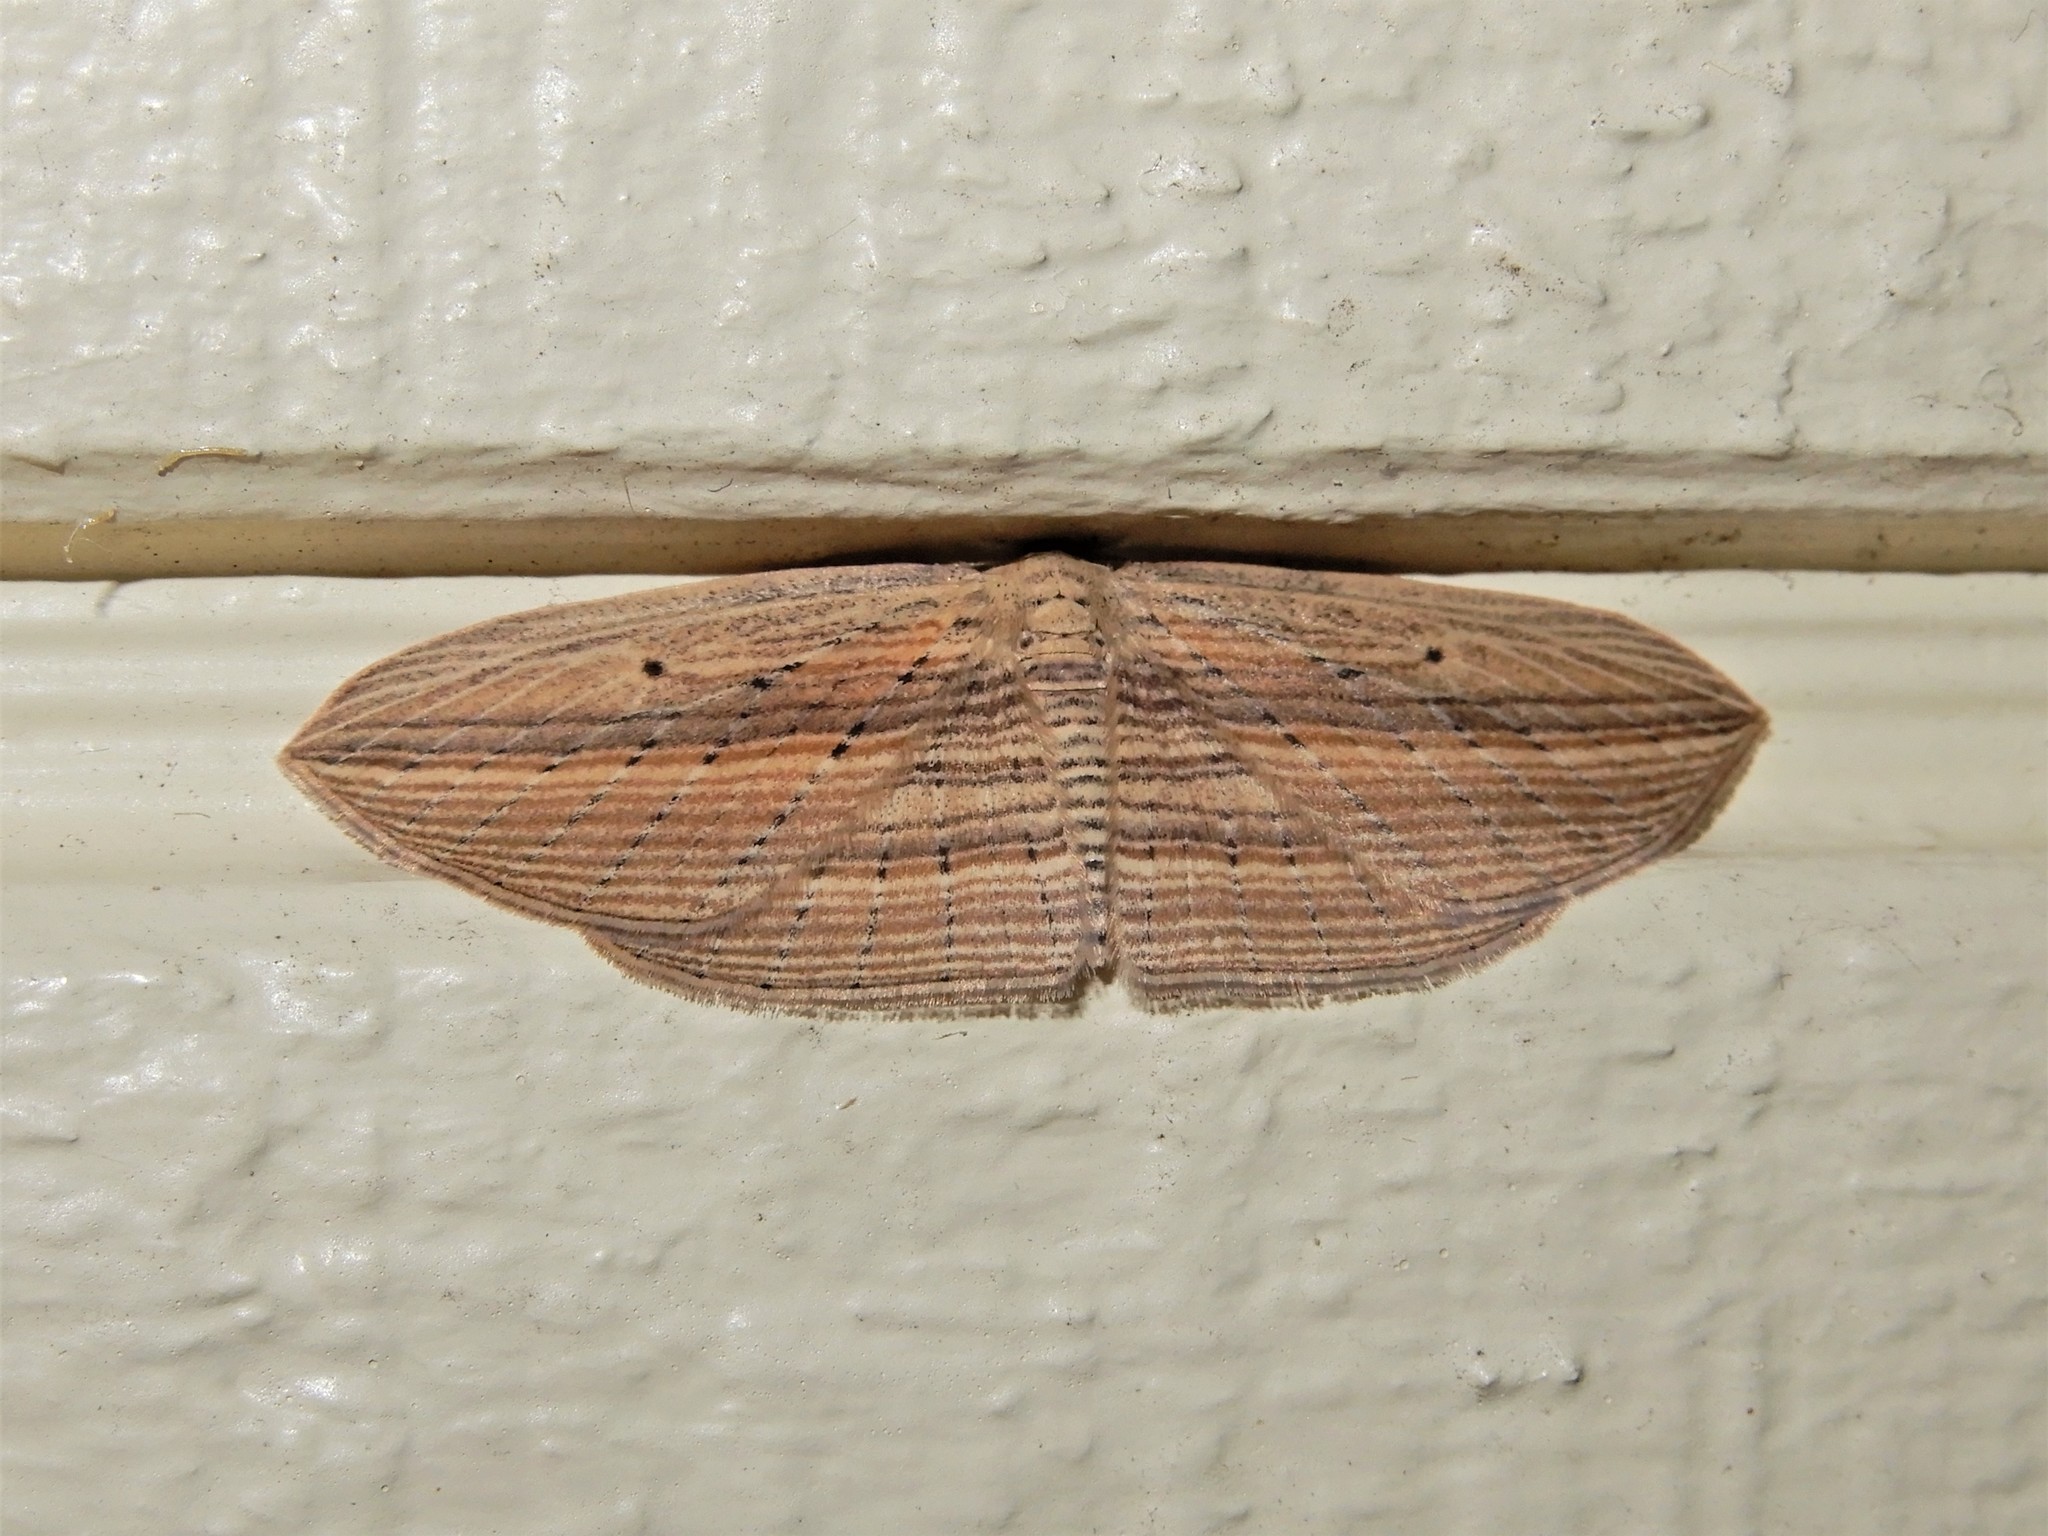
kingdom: Animalia
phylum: Arthropoda
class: Insecta
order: Lepidoptera
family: Geometridae
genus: Epiphryne
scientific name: Epiphryne verriculata
